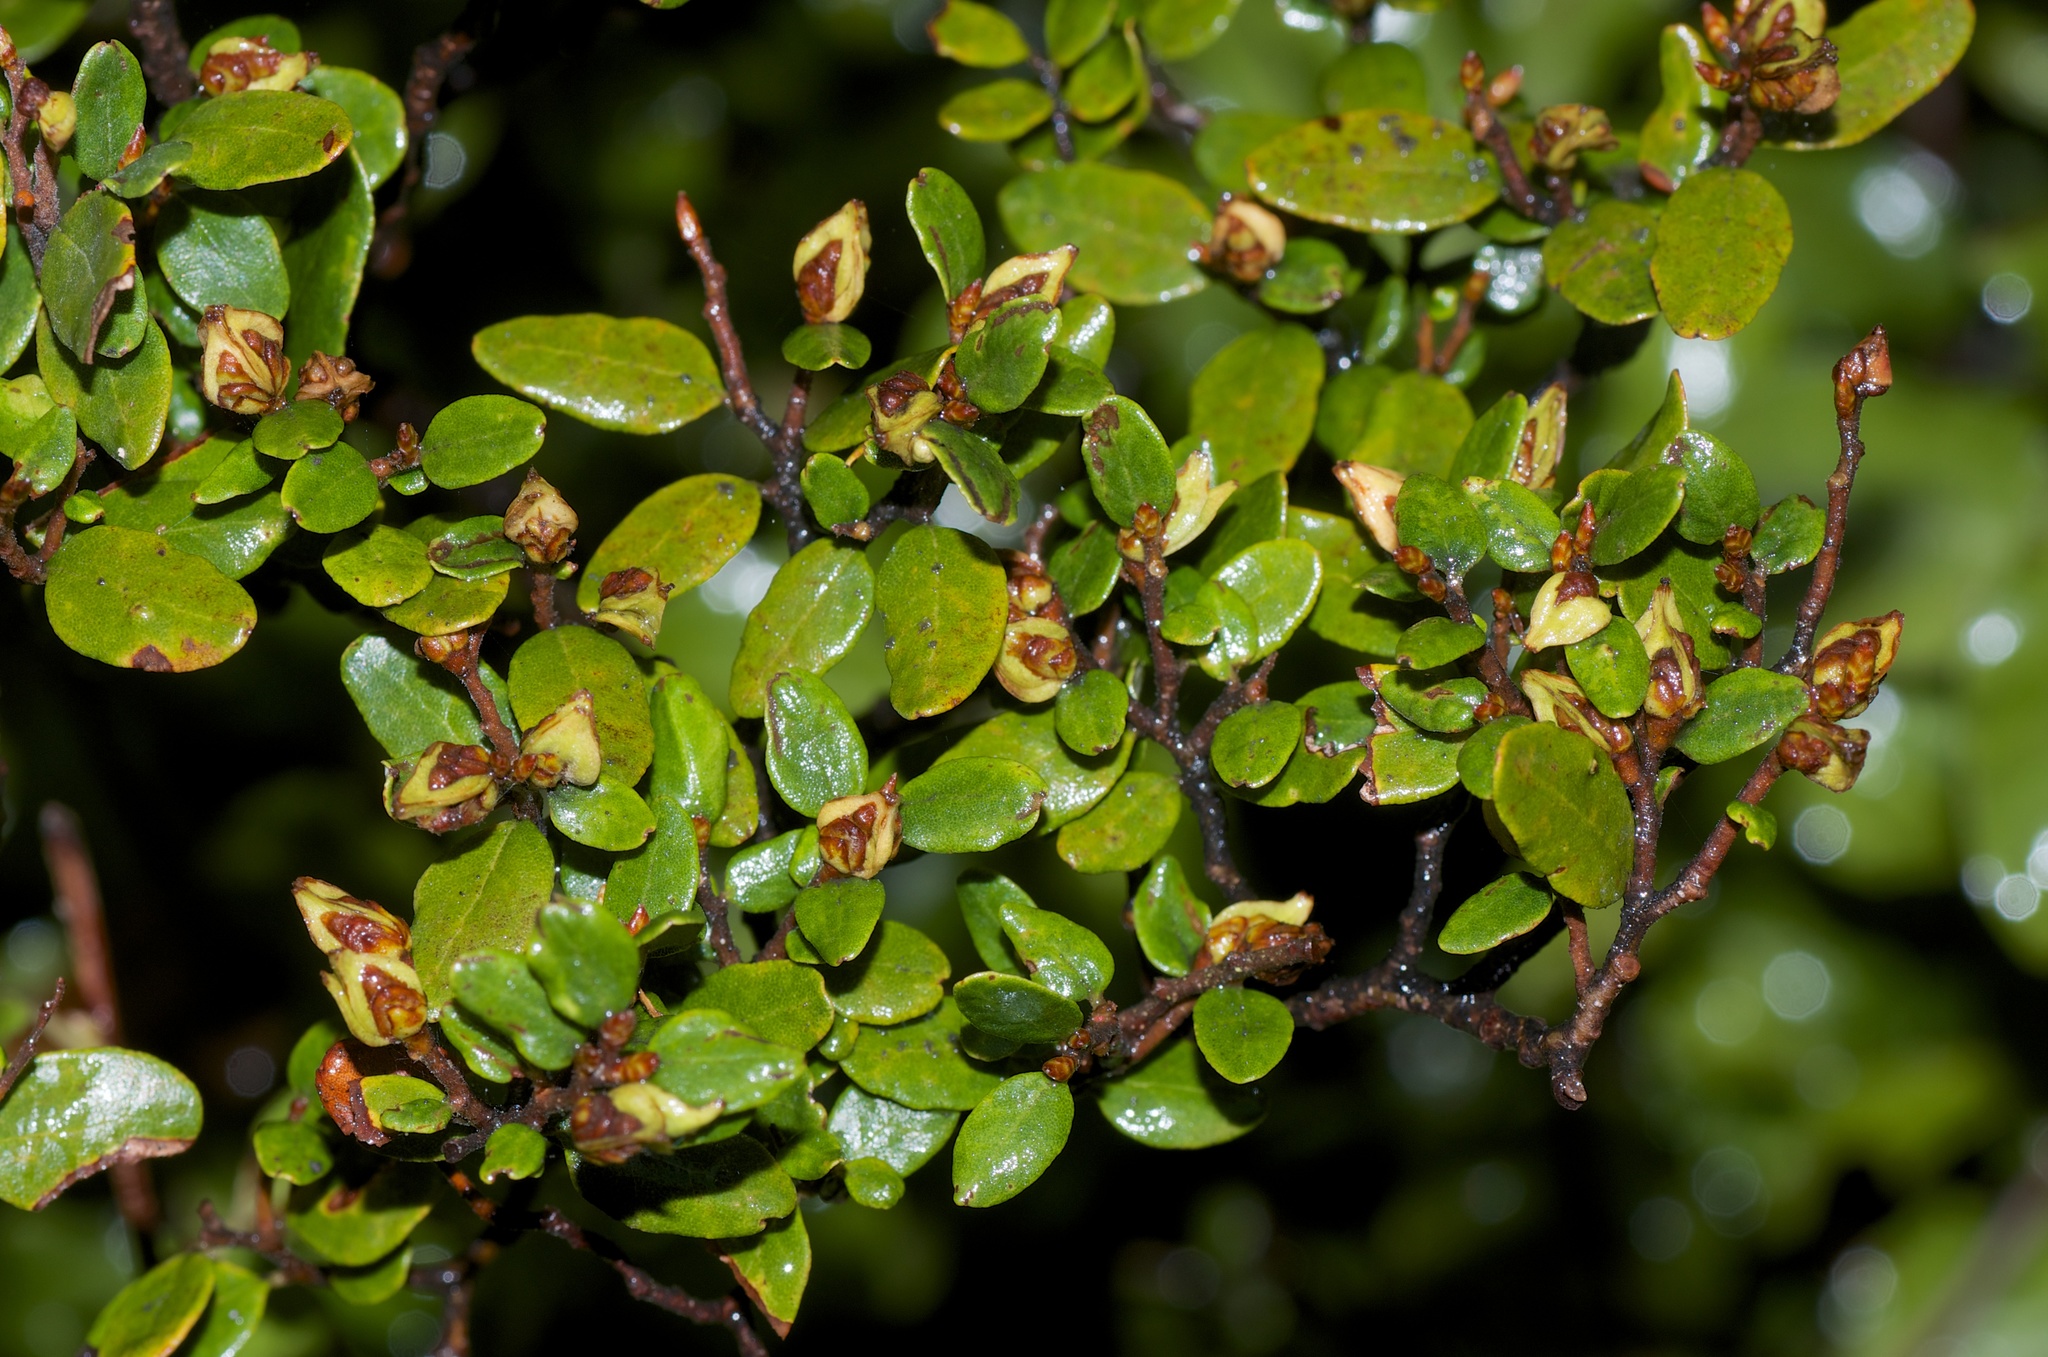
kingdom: Plantae
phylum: Tracheophyta
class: Magnoliopsida
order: Fagales
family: Nothofagaceae
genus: Nothofagus
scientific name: Nothofagus solandri
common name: Black beech
